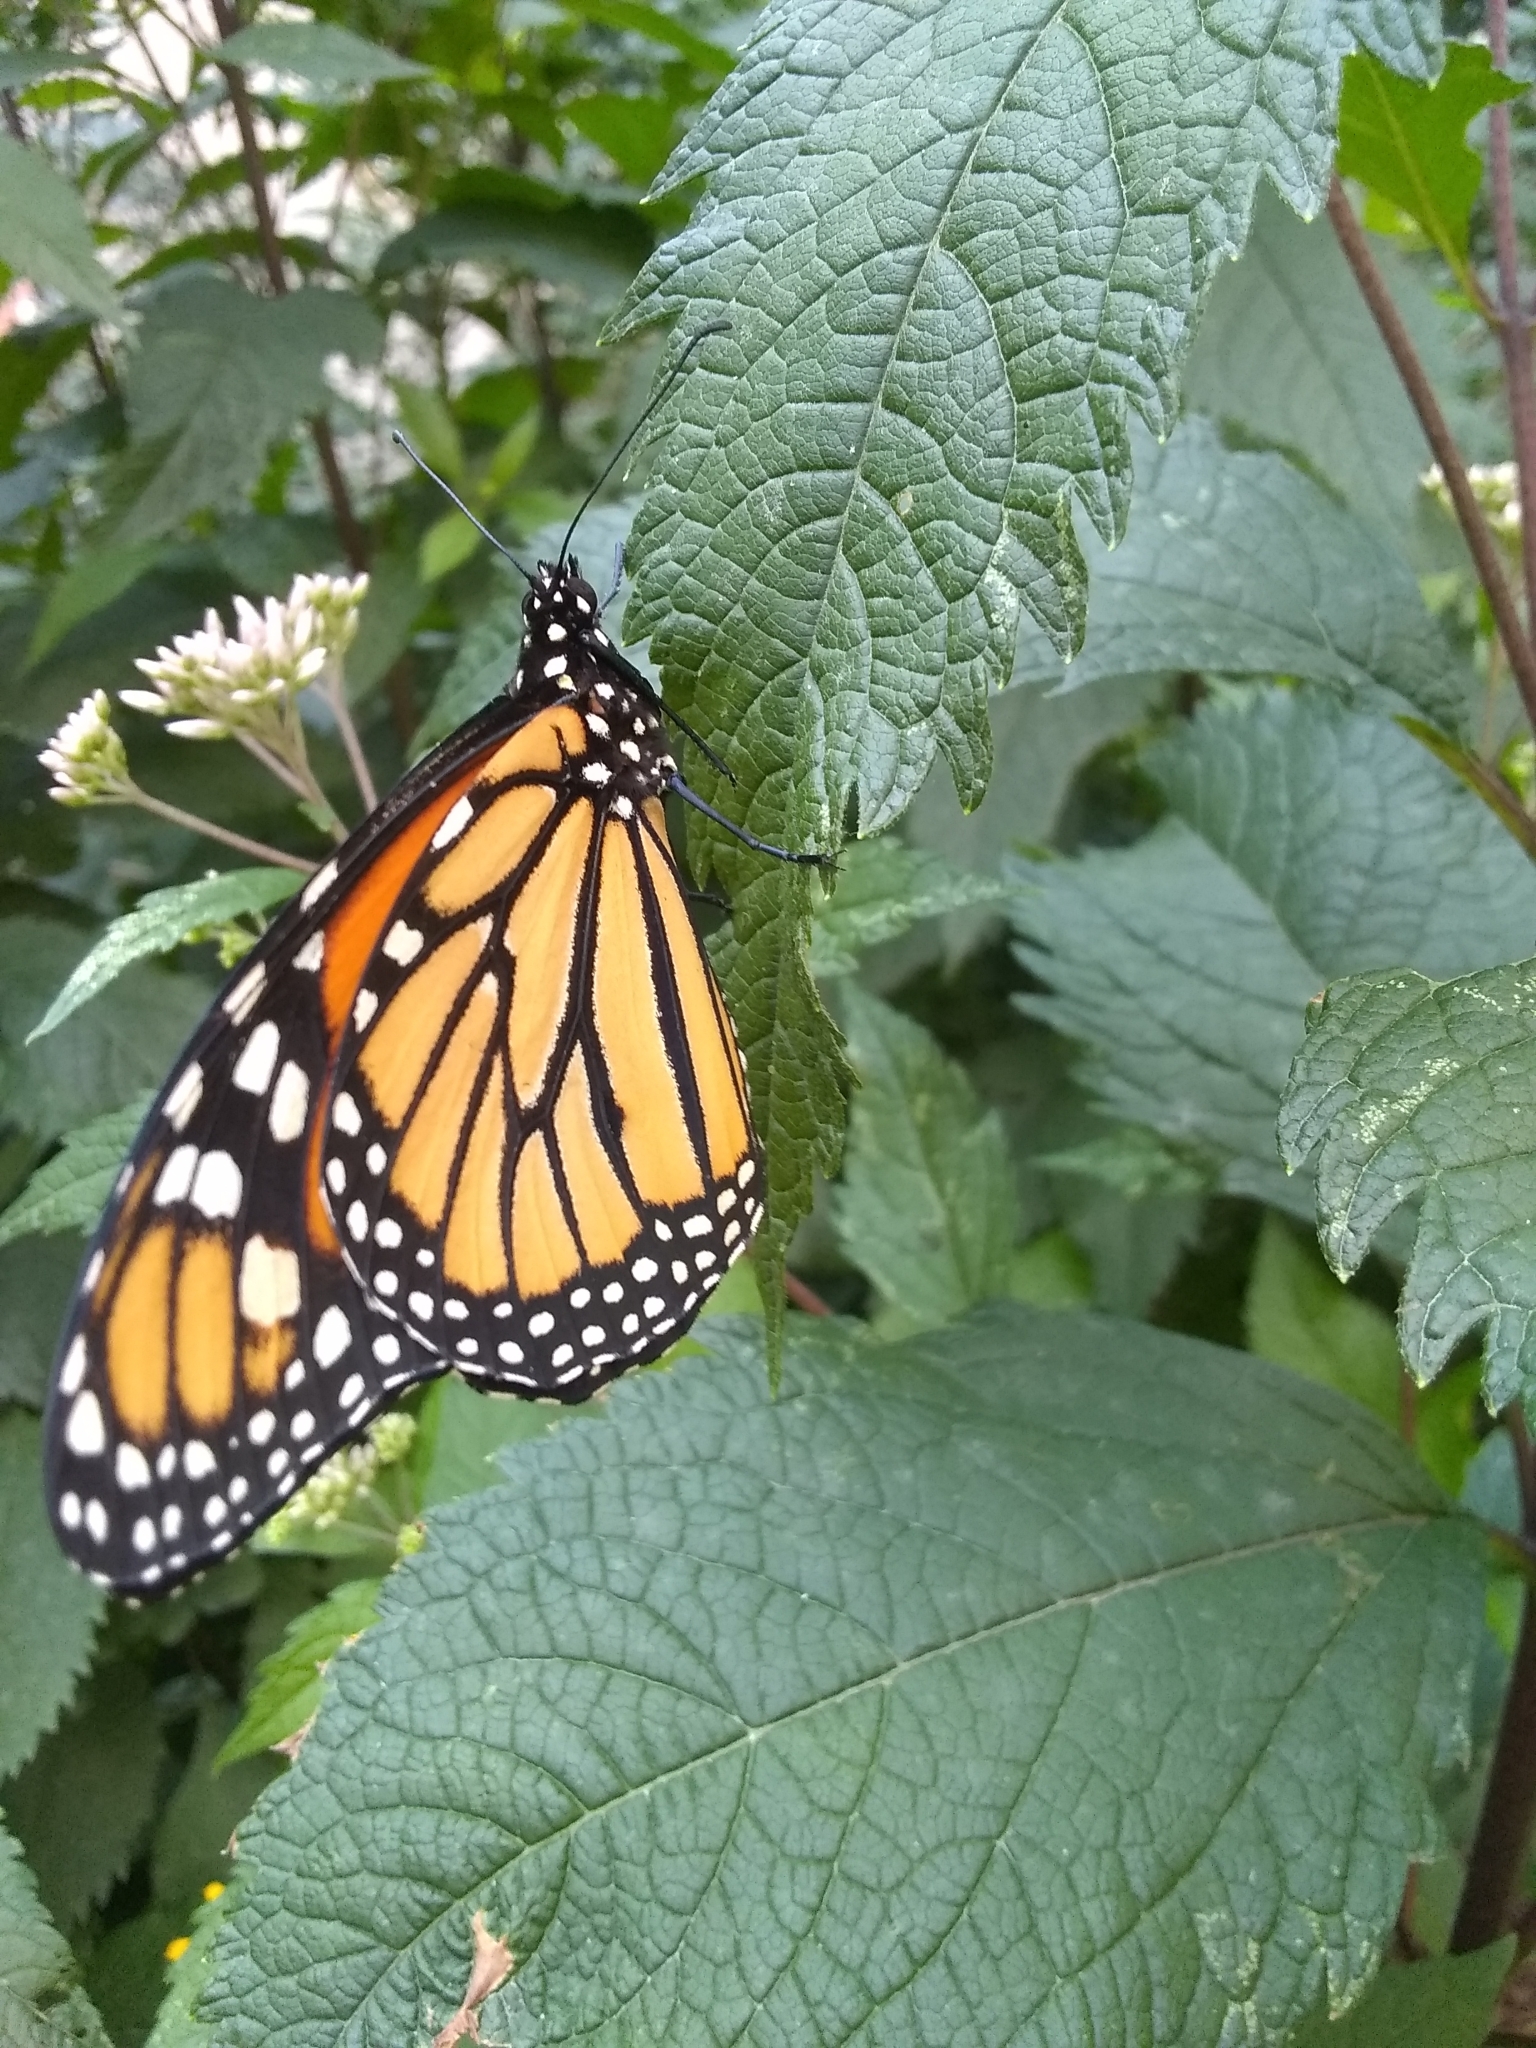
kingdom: Animalia
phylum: Arthropoda
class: Insecta
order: Lepidoptera
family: Nymphalidae
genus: Danaus
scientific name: Danaus plexippus
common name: Monarch
